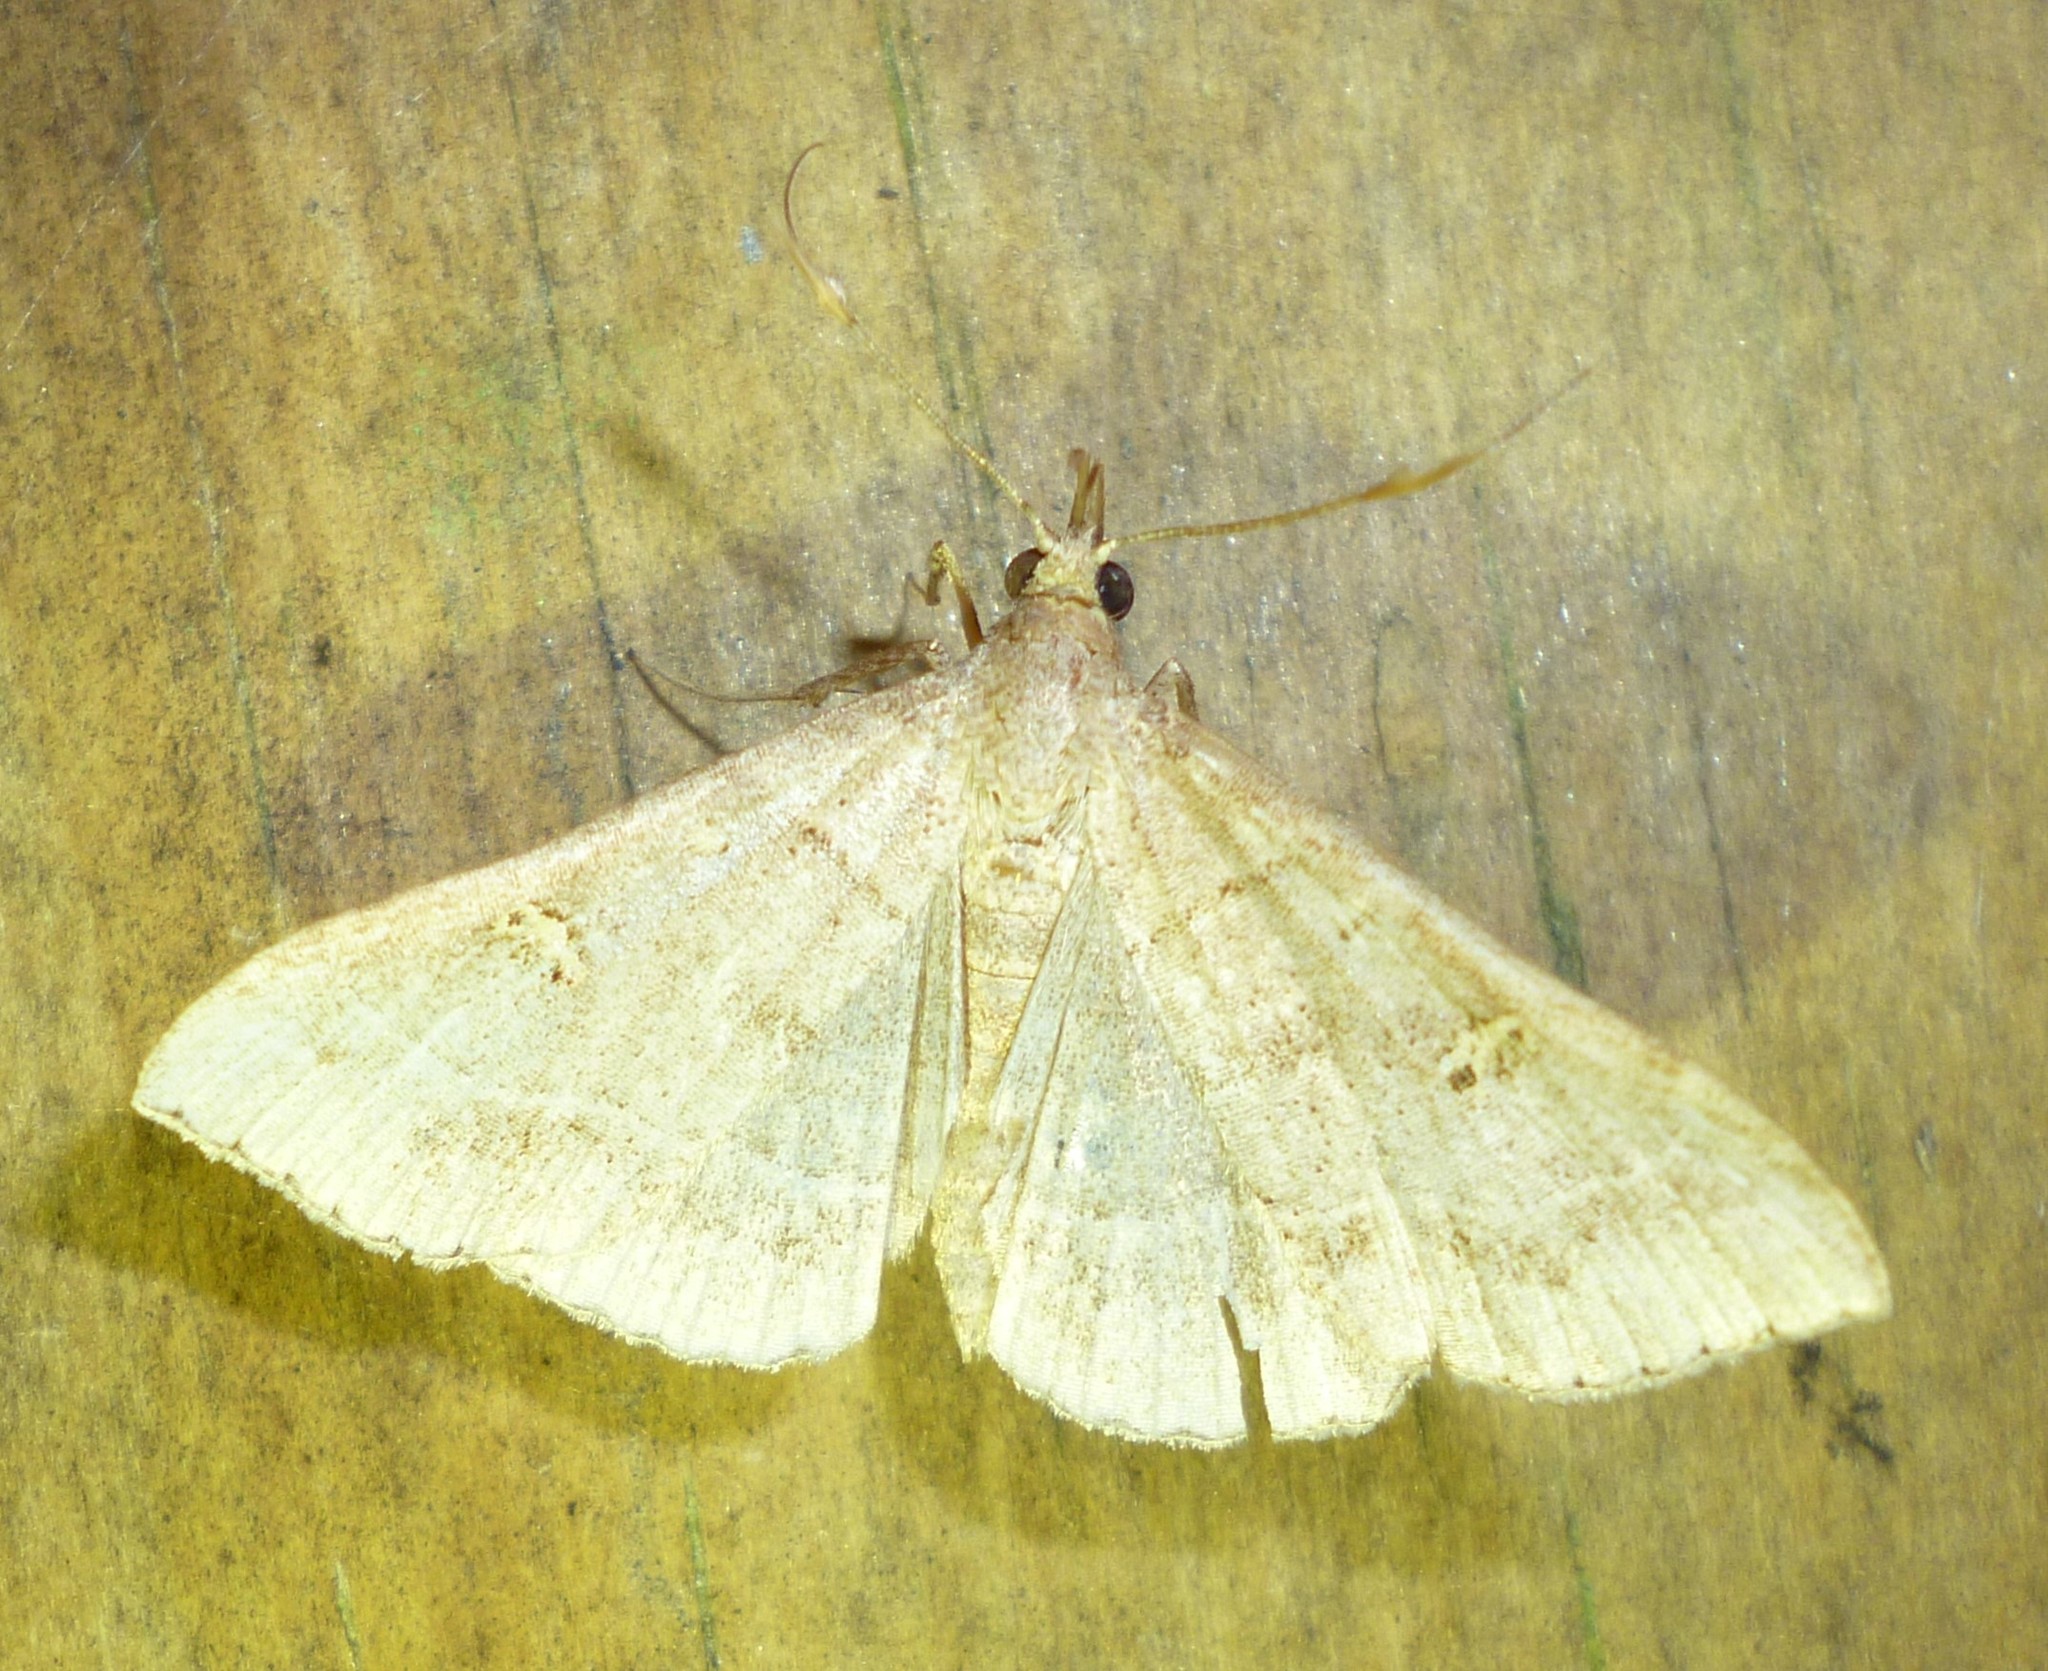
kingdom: Animalia
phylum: Arthropoda
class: Insecta
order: Lepidoptera
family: Erebidae
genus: Renia
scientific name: Renia flavipunctalis
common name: Yellow-spotted renia moth
